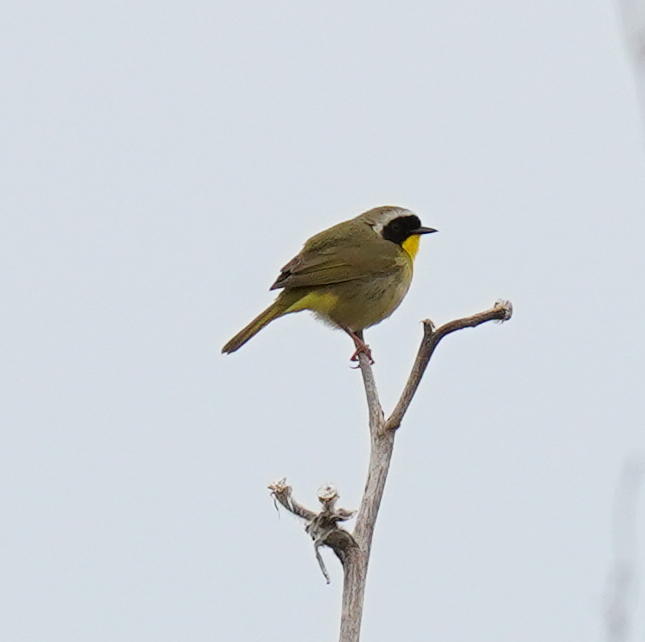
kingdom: Animalia
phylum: Chordata
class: Aves
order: Passeriformes
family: Parulidae
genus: Geothlypis
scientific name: Geothlypis trichas
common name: Common yellowthroat
